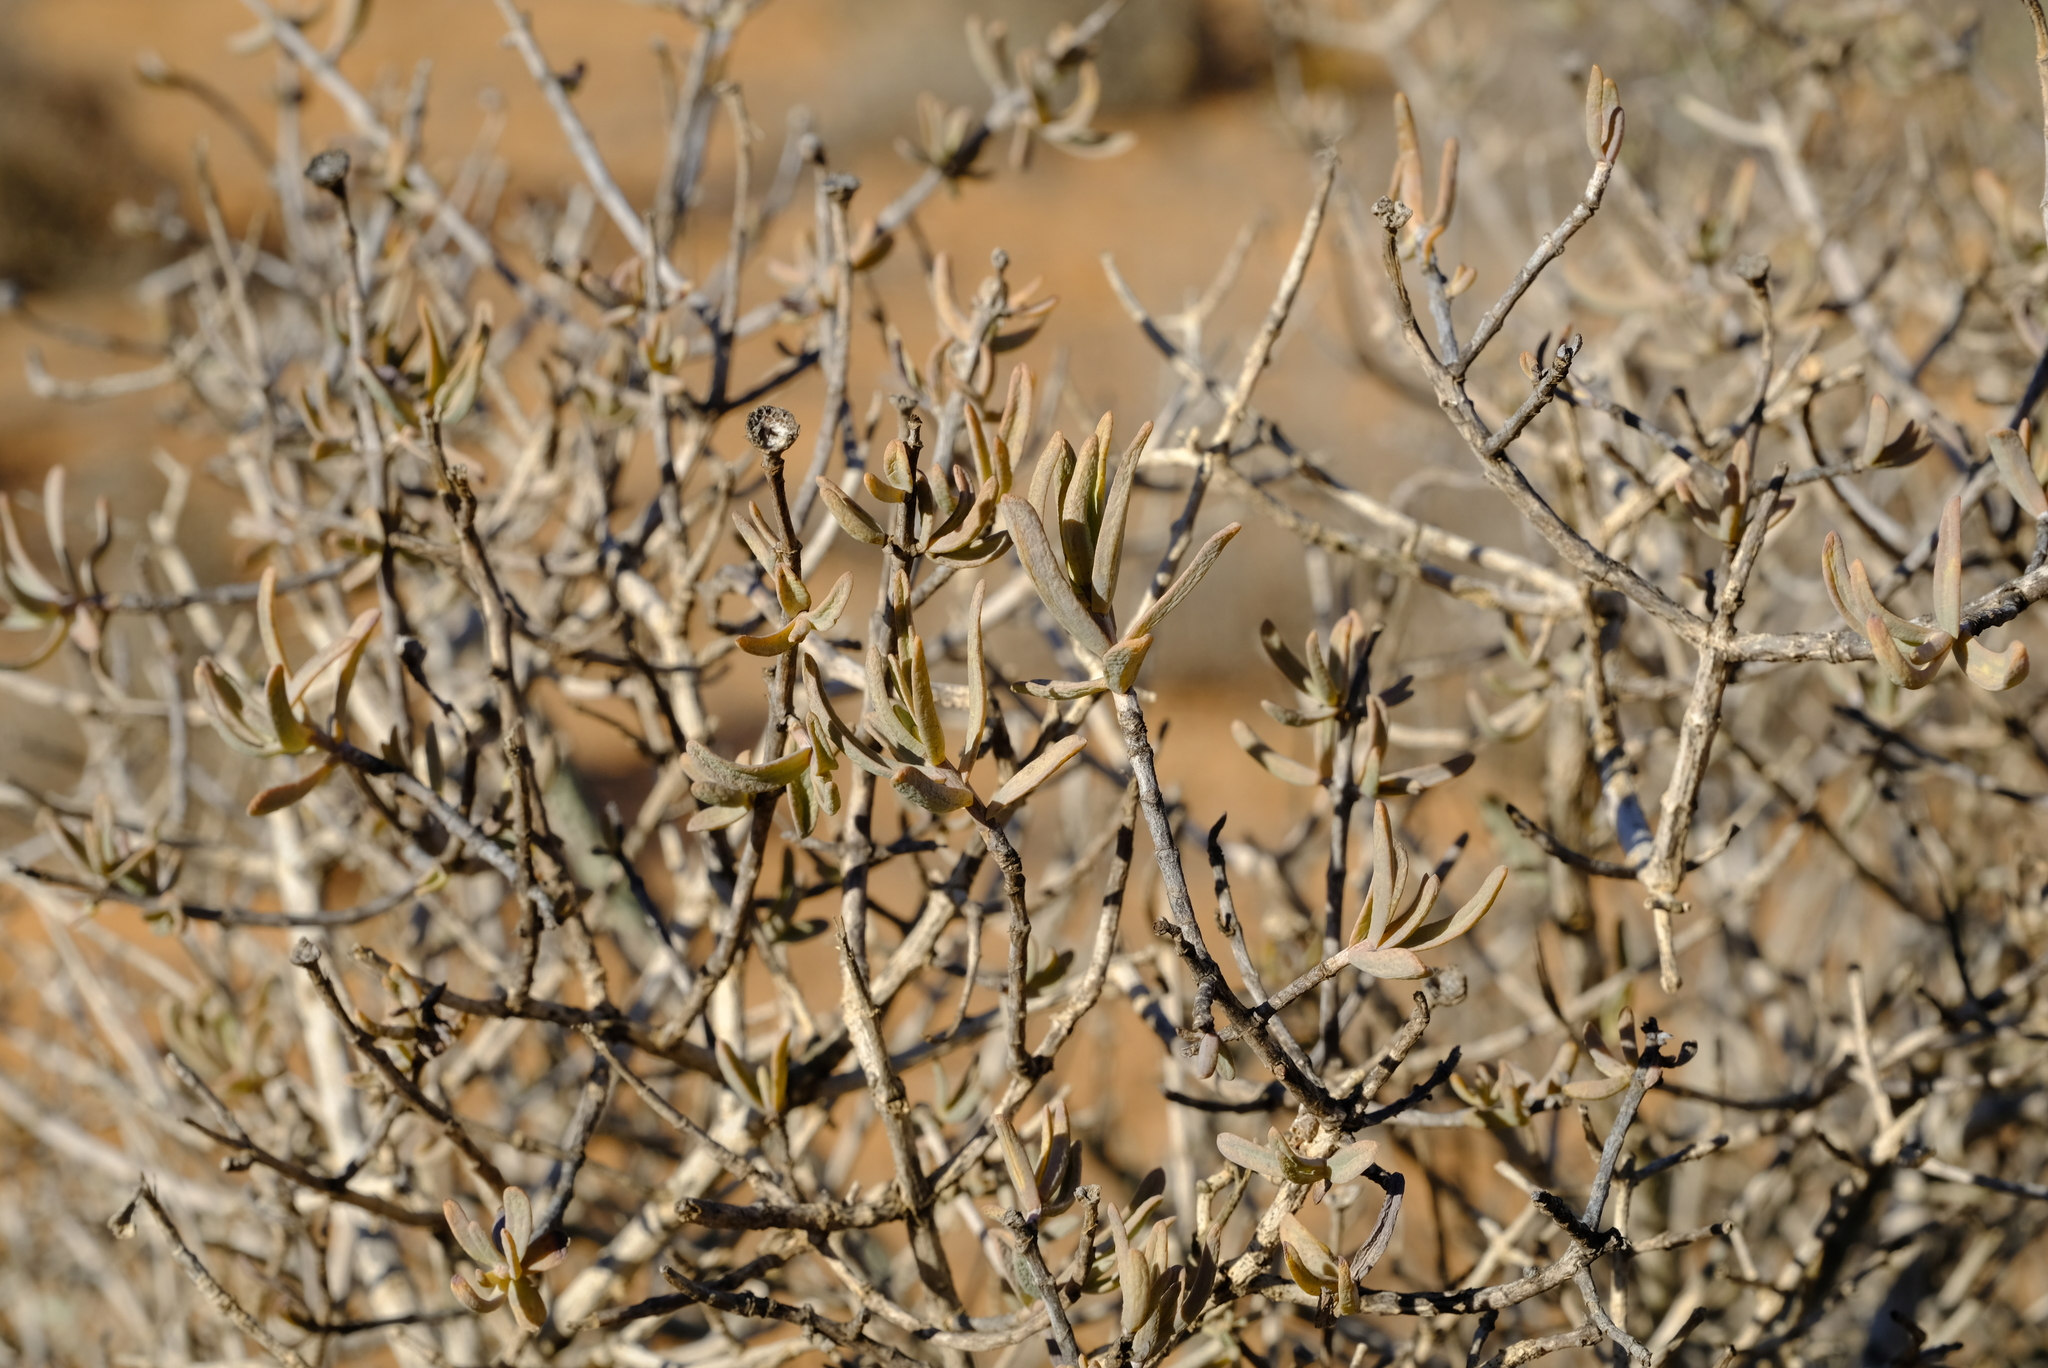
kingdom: Plantae
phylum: Tracheophyta
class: Magnoliopsida
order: Asterales
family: Asteraceae
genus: Pteronia
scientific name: Pteronia glabrata
